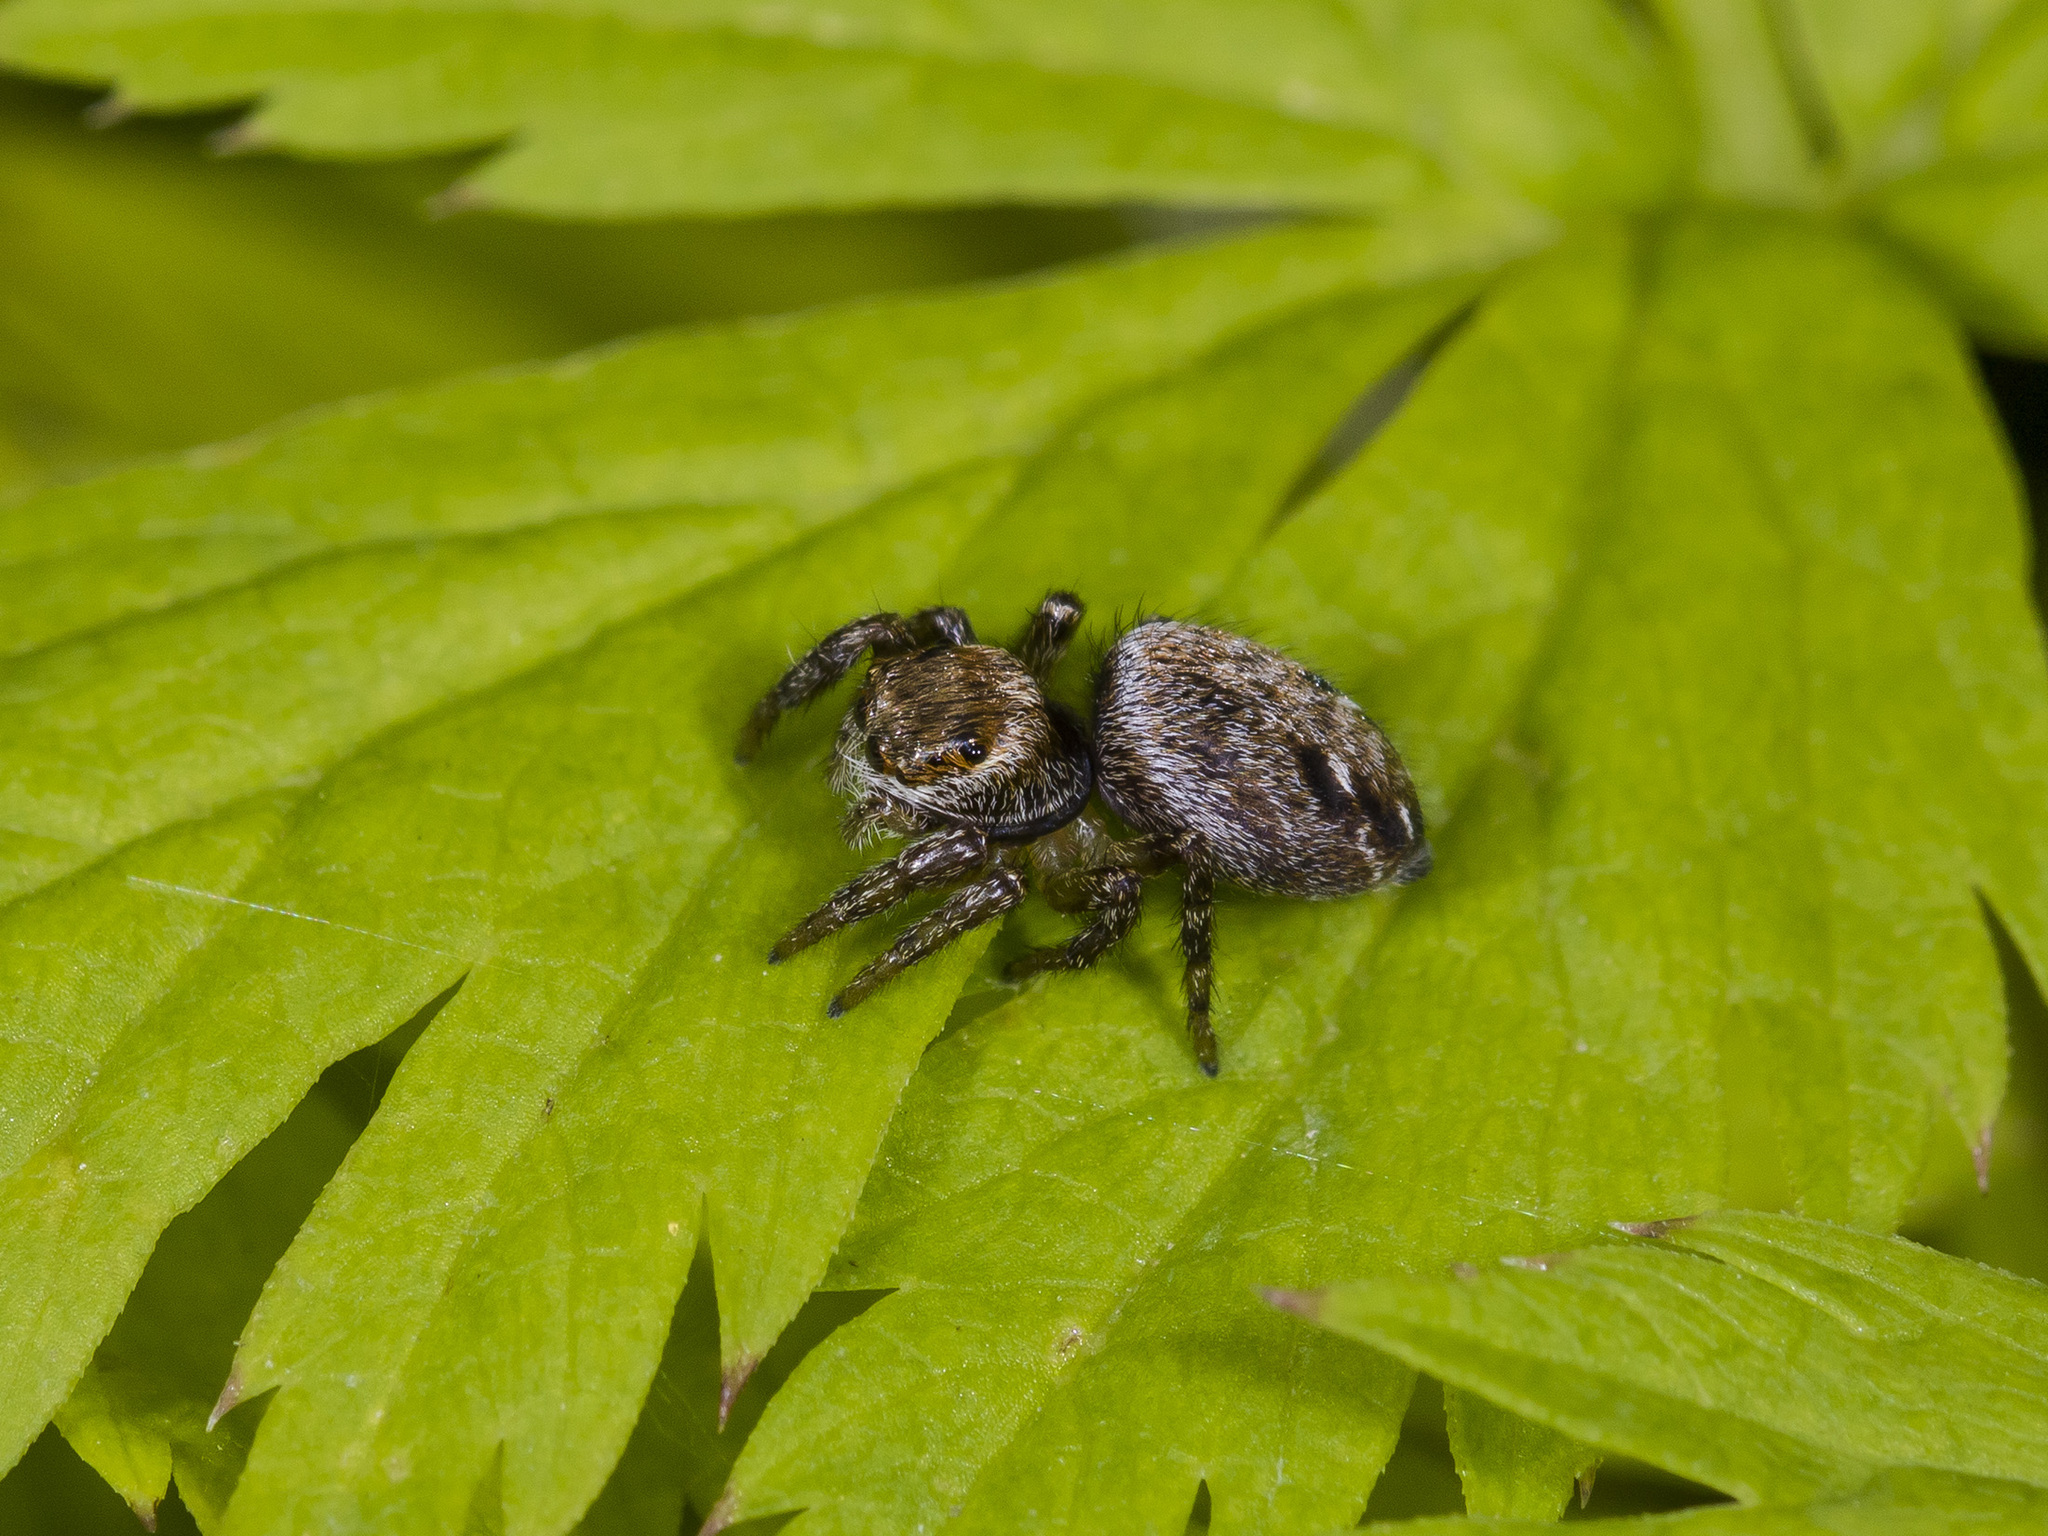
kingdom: Animalia
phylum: Arthropoda
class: Arachnida
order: Araneae
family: Salticidae
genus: Evarcha
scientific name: Evarcha arcuata
